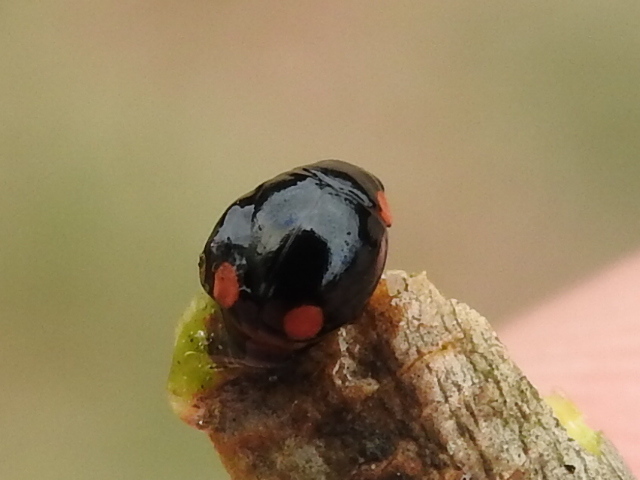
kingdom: Animalia
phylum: Arthropoda
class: Insecta
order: Coleoptera
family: Coccinellidae
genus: Hyperaspis
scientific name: Hyperaspis bigeminata
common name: Bigeminate sigil lady beetle
